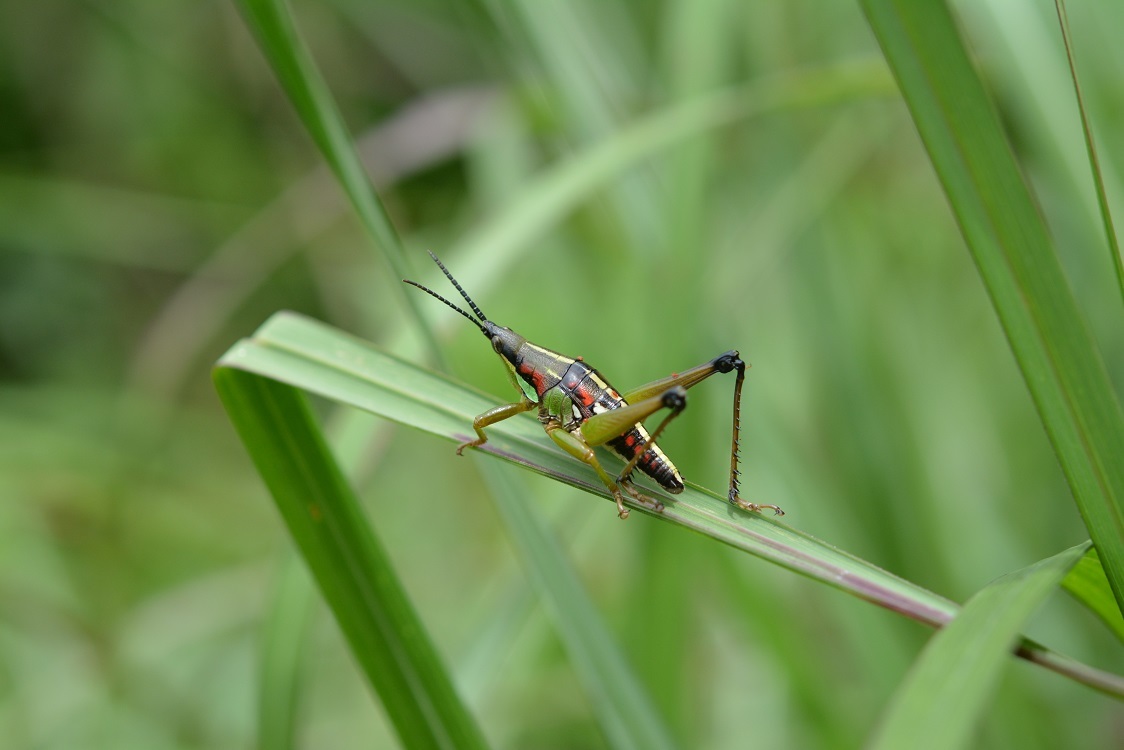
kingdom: Animalia
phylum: Arthropoda
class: Insecta
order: Orthoptera
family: Pyrgomorphidae
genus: Sphenarium
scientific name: Sphenarium histrio
